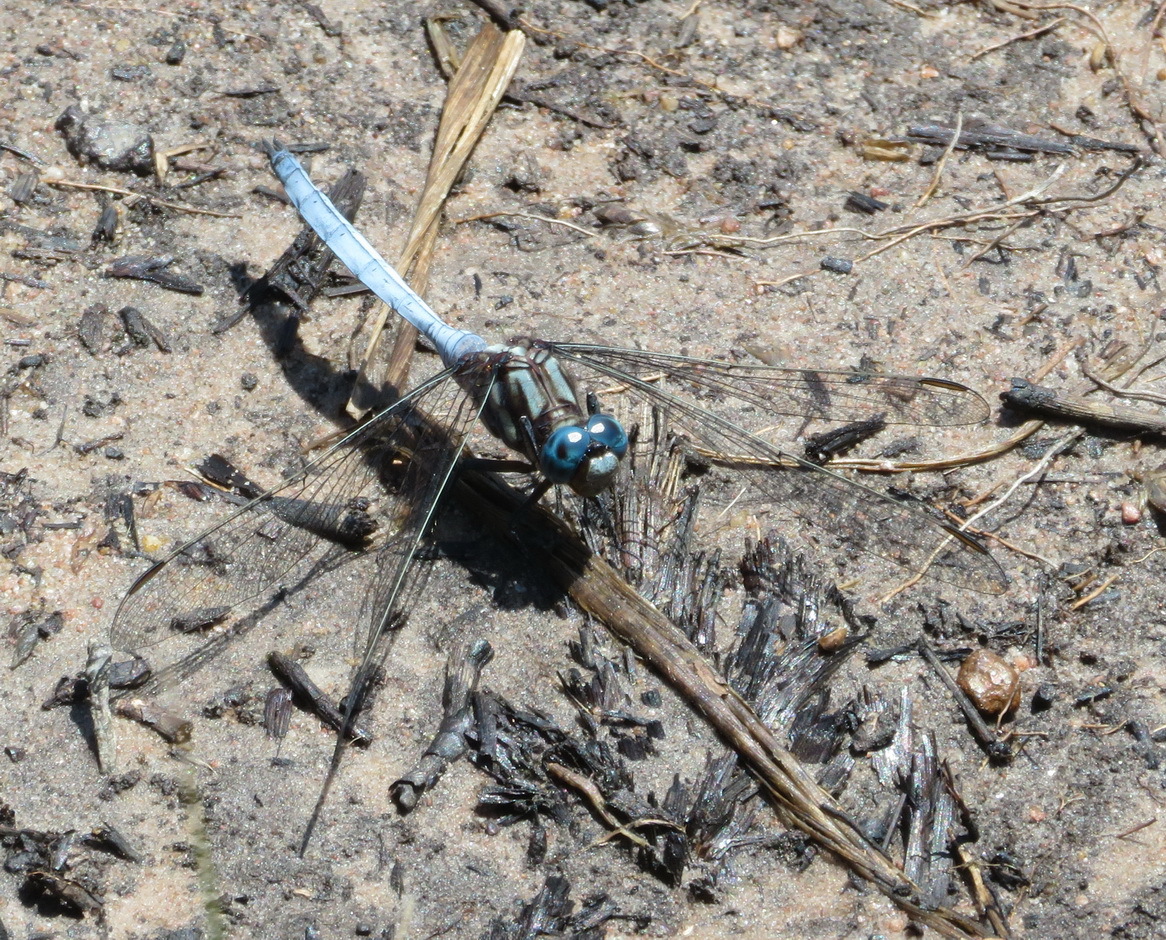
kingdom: Animalia
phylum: Arthropoda
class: Insecta
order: Odonata
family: Libellulidae
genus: Orthetrum
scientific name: Orthetrum julia
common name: Julia skimmer
